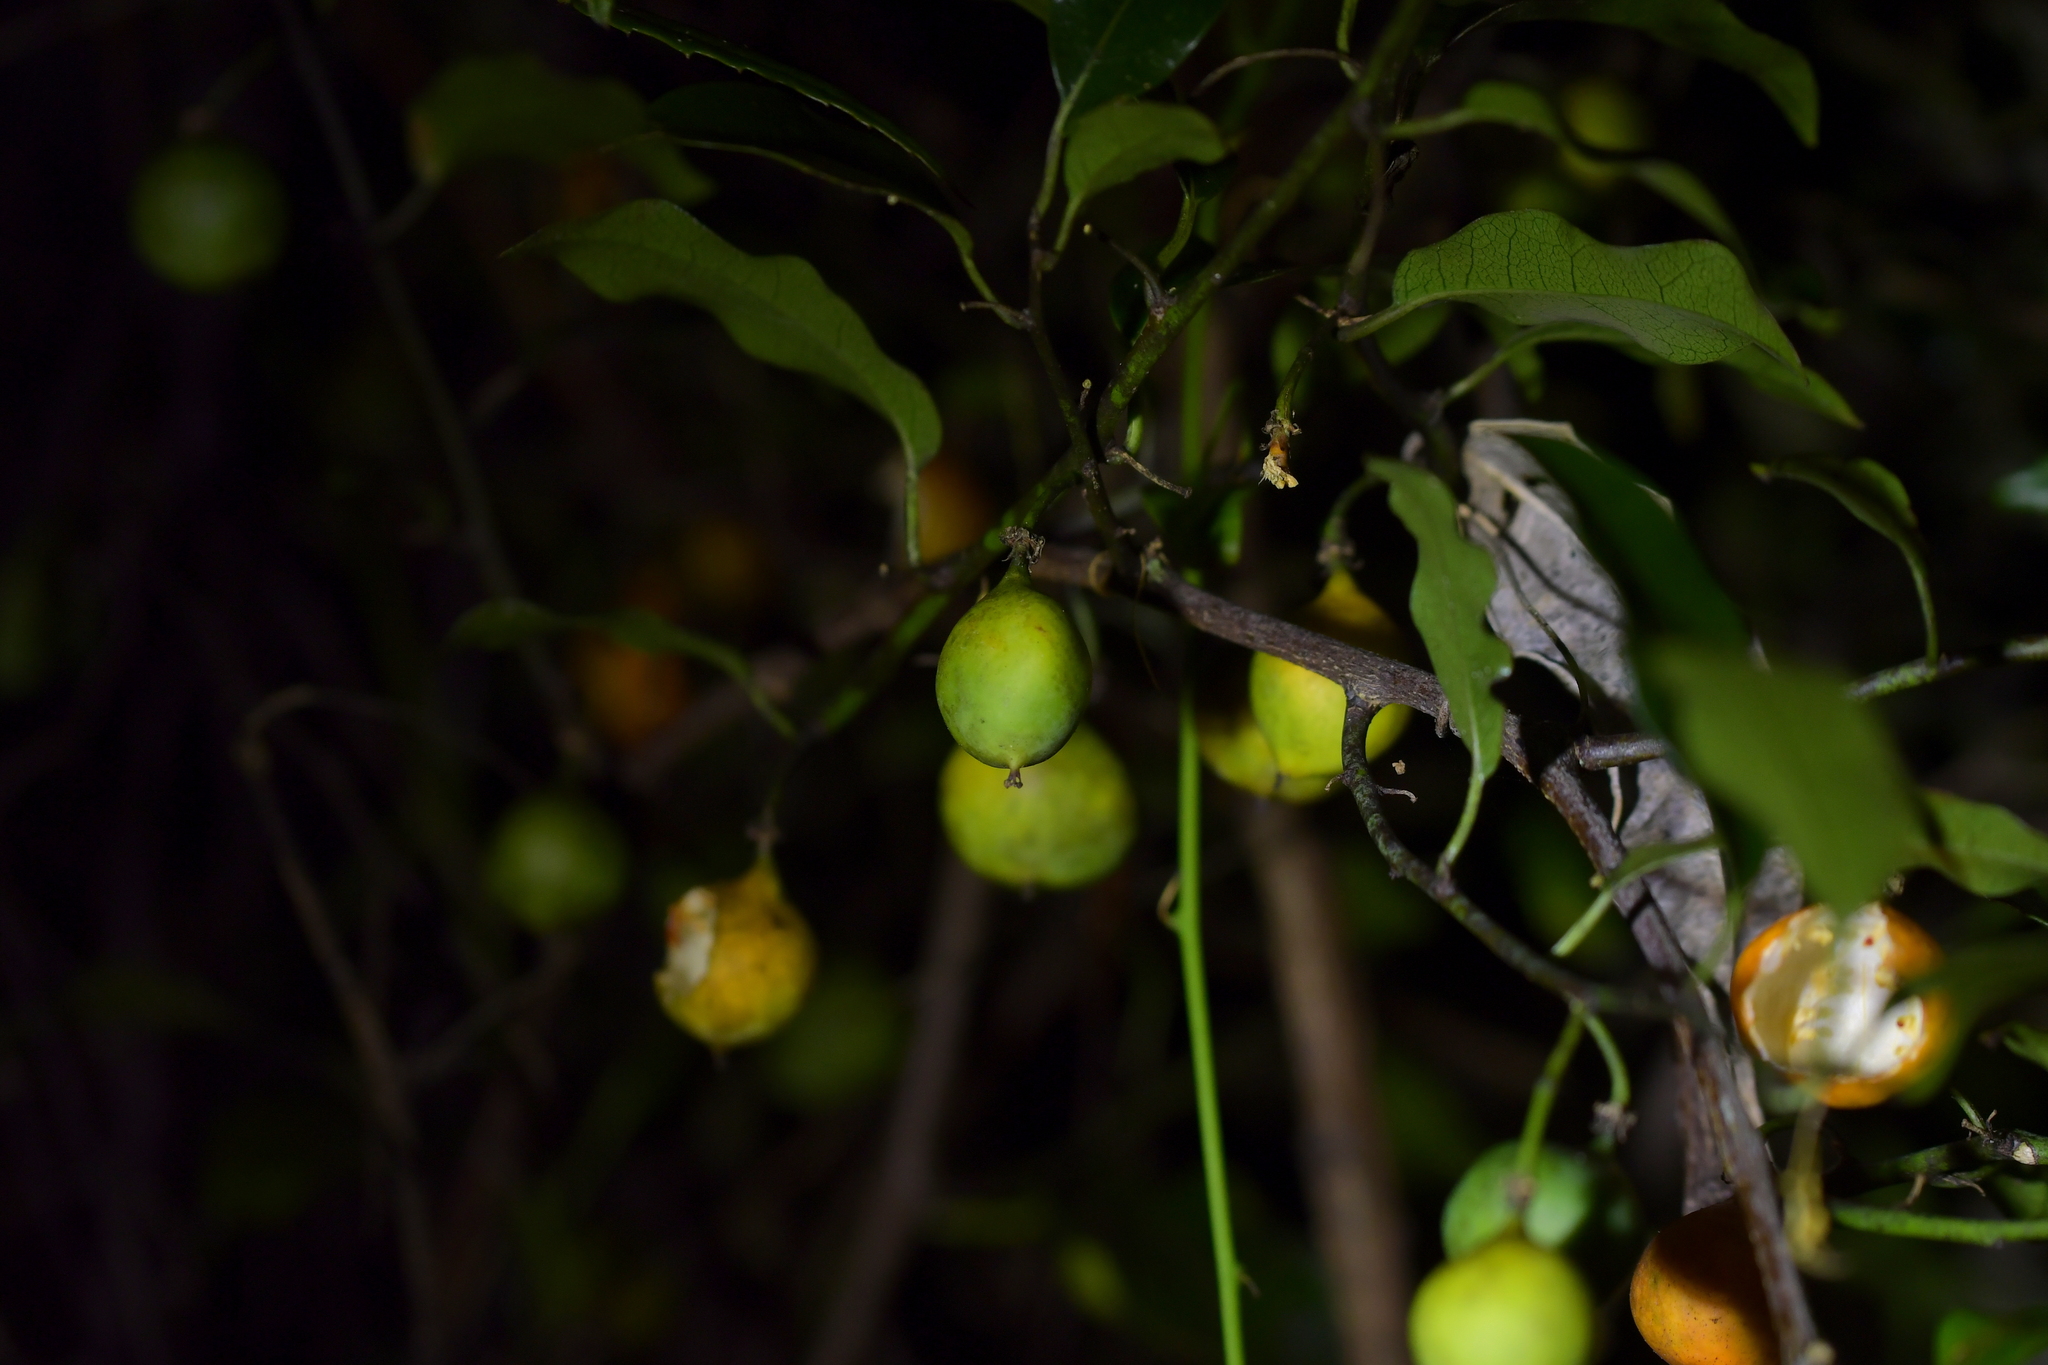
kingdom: Plantae
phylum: Tracheophyta
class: Magnoliopsida
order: Malpighiales
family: Passifloraceae
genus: Passiflora
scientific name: Passiflora tetrandra
